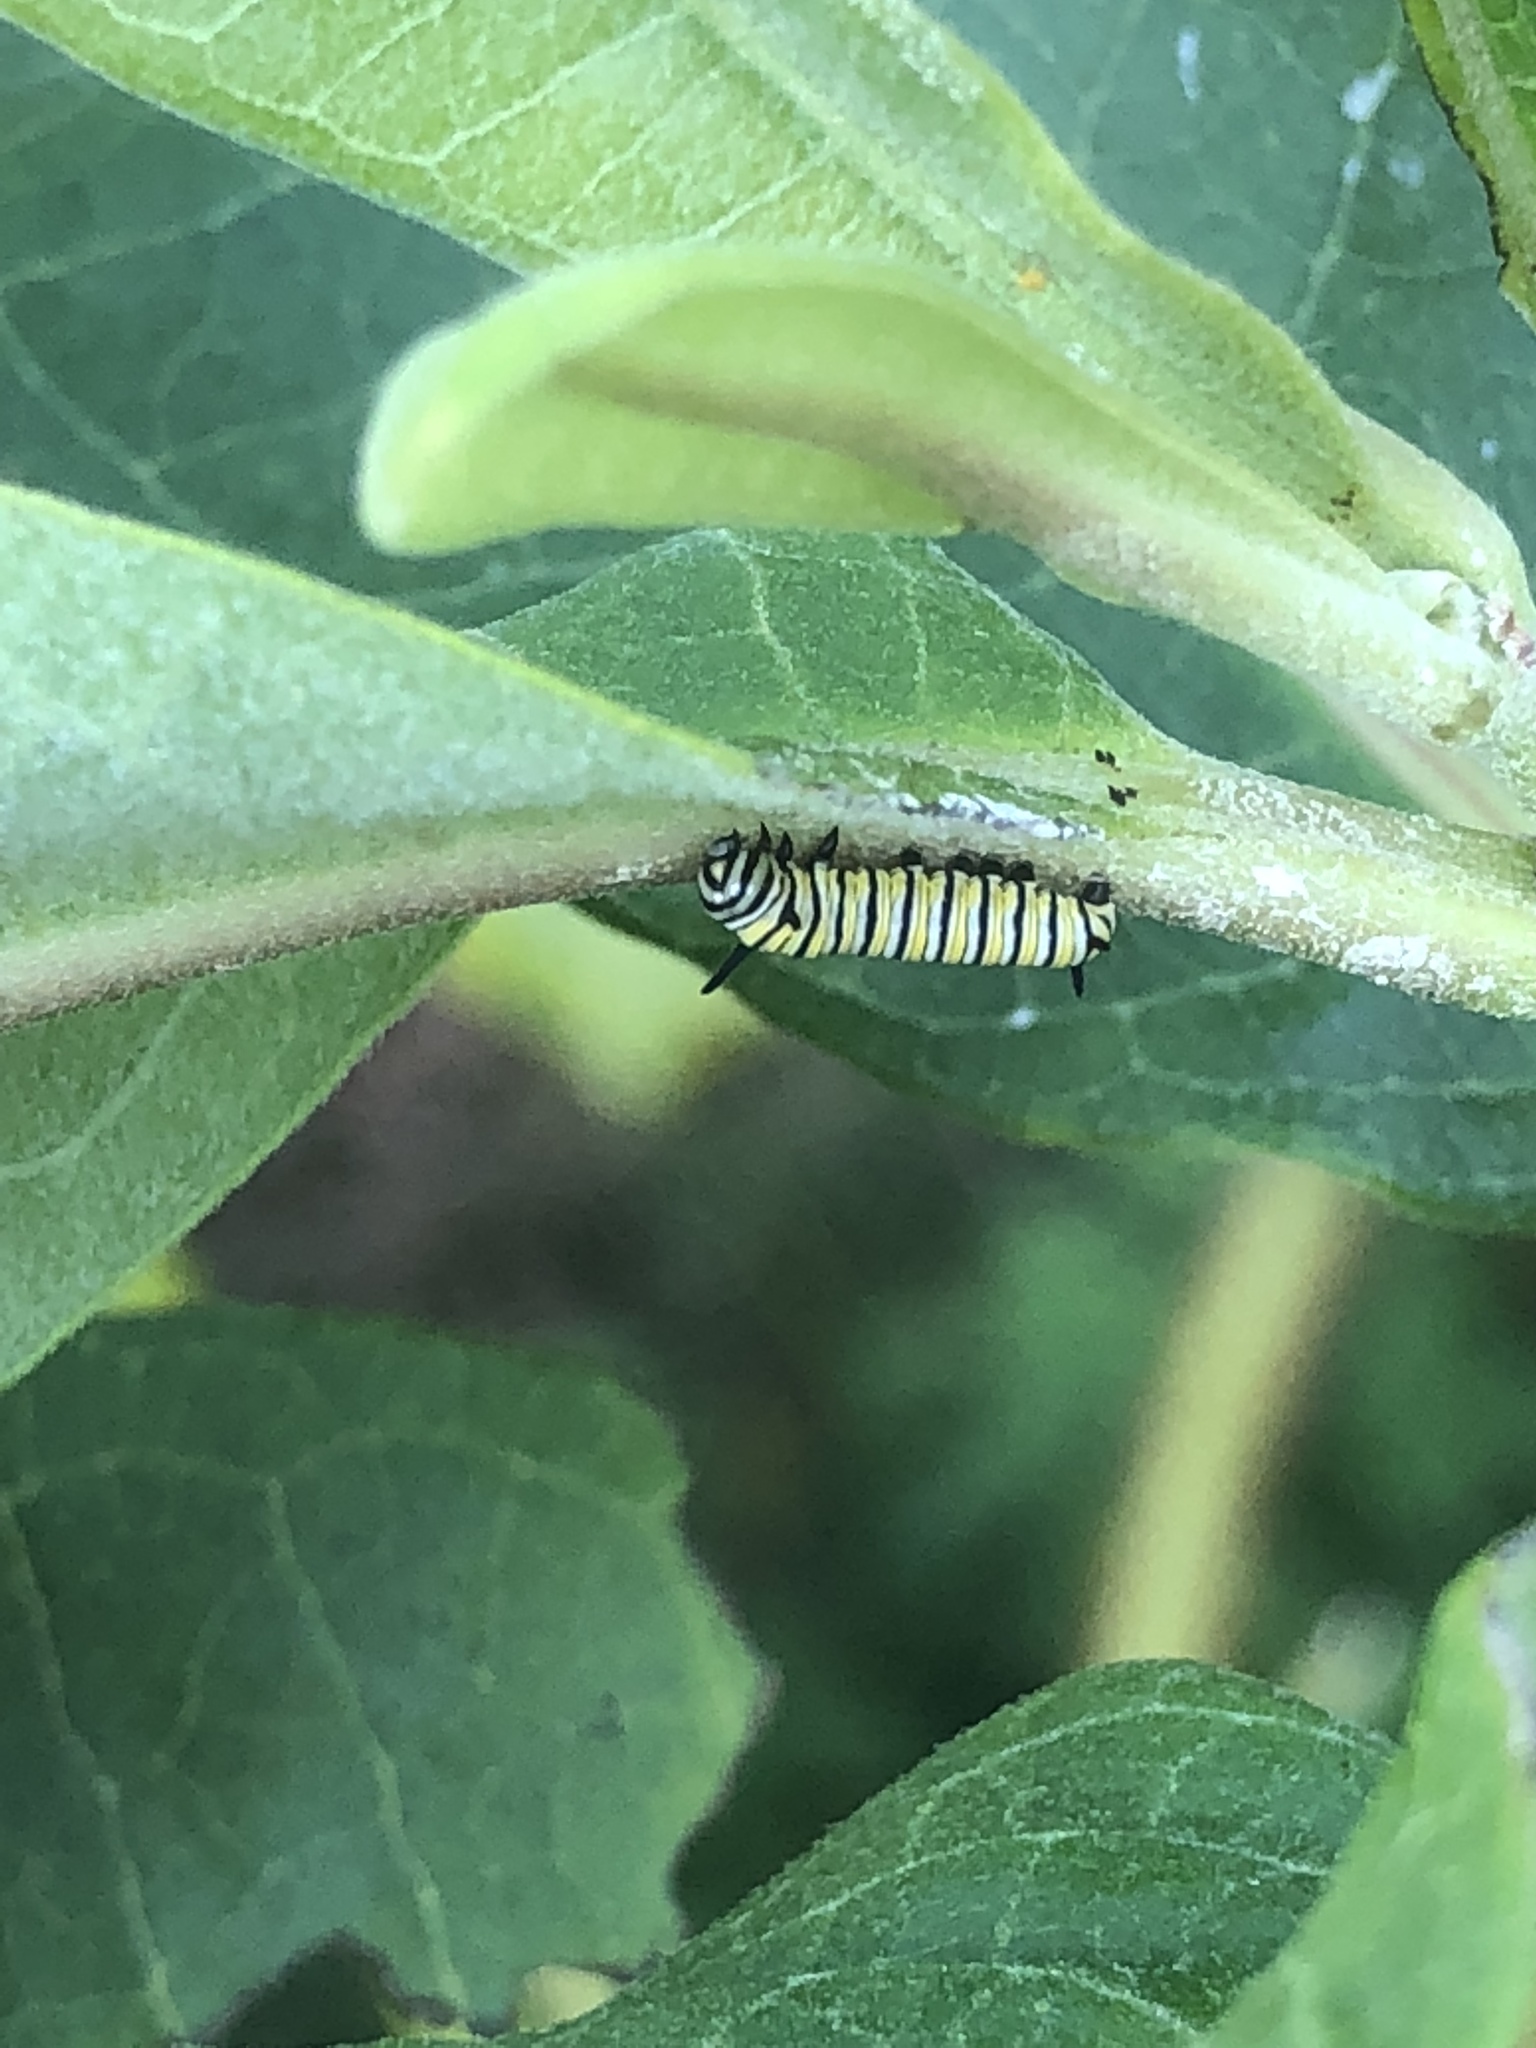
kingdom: Animalia
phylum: Arthropoda
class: Insecta
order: Lepidoptera
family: Nymphalidae
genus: Danaus
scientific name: Danaus plexippus
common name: Monarch
